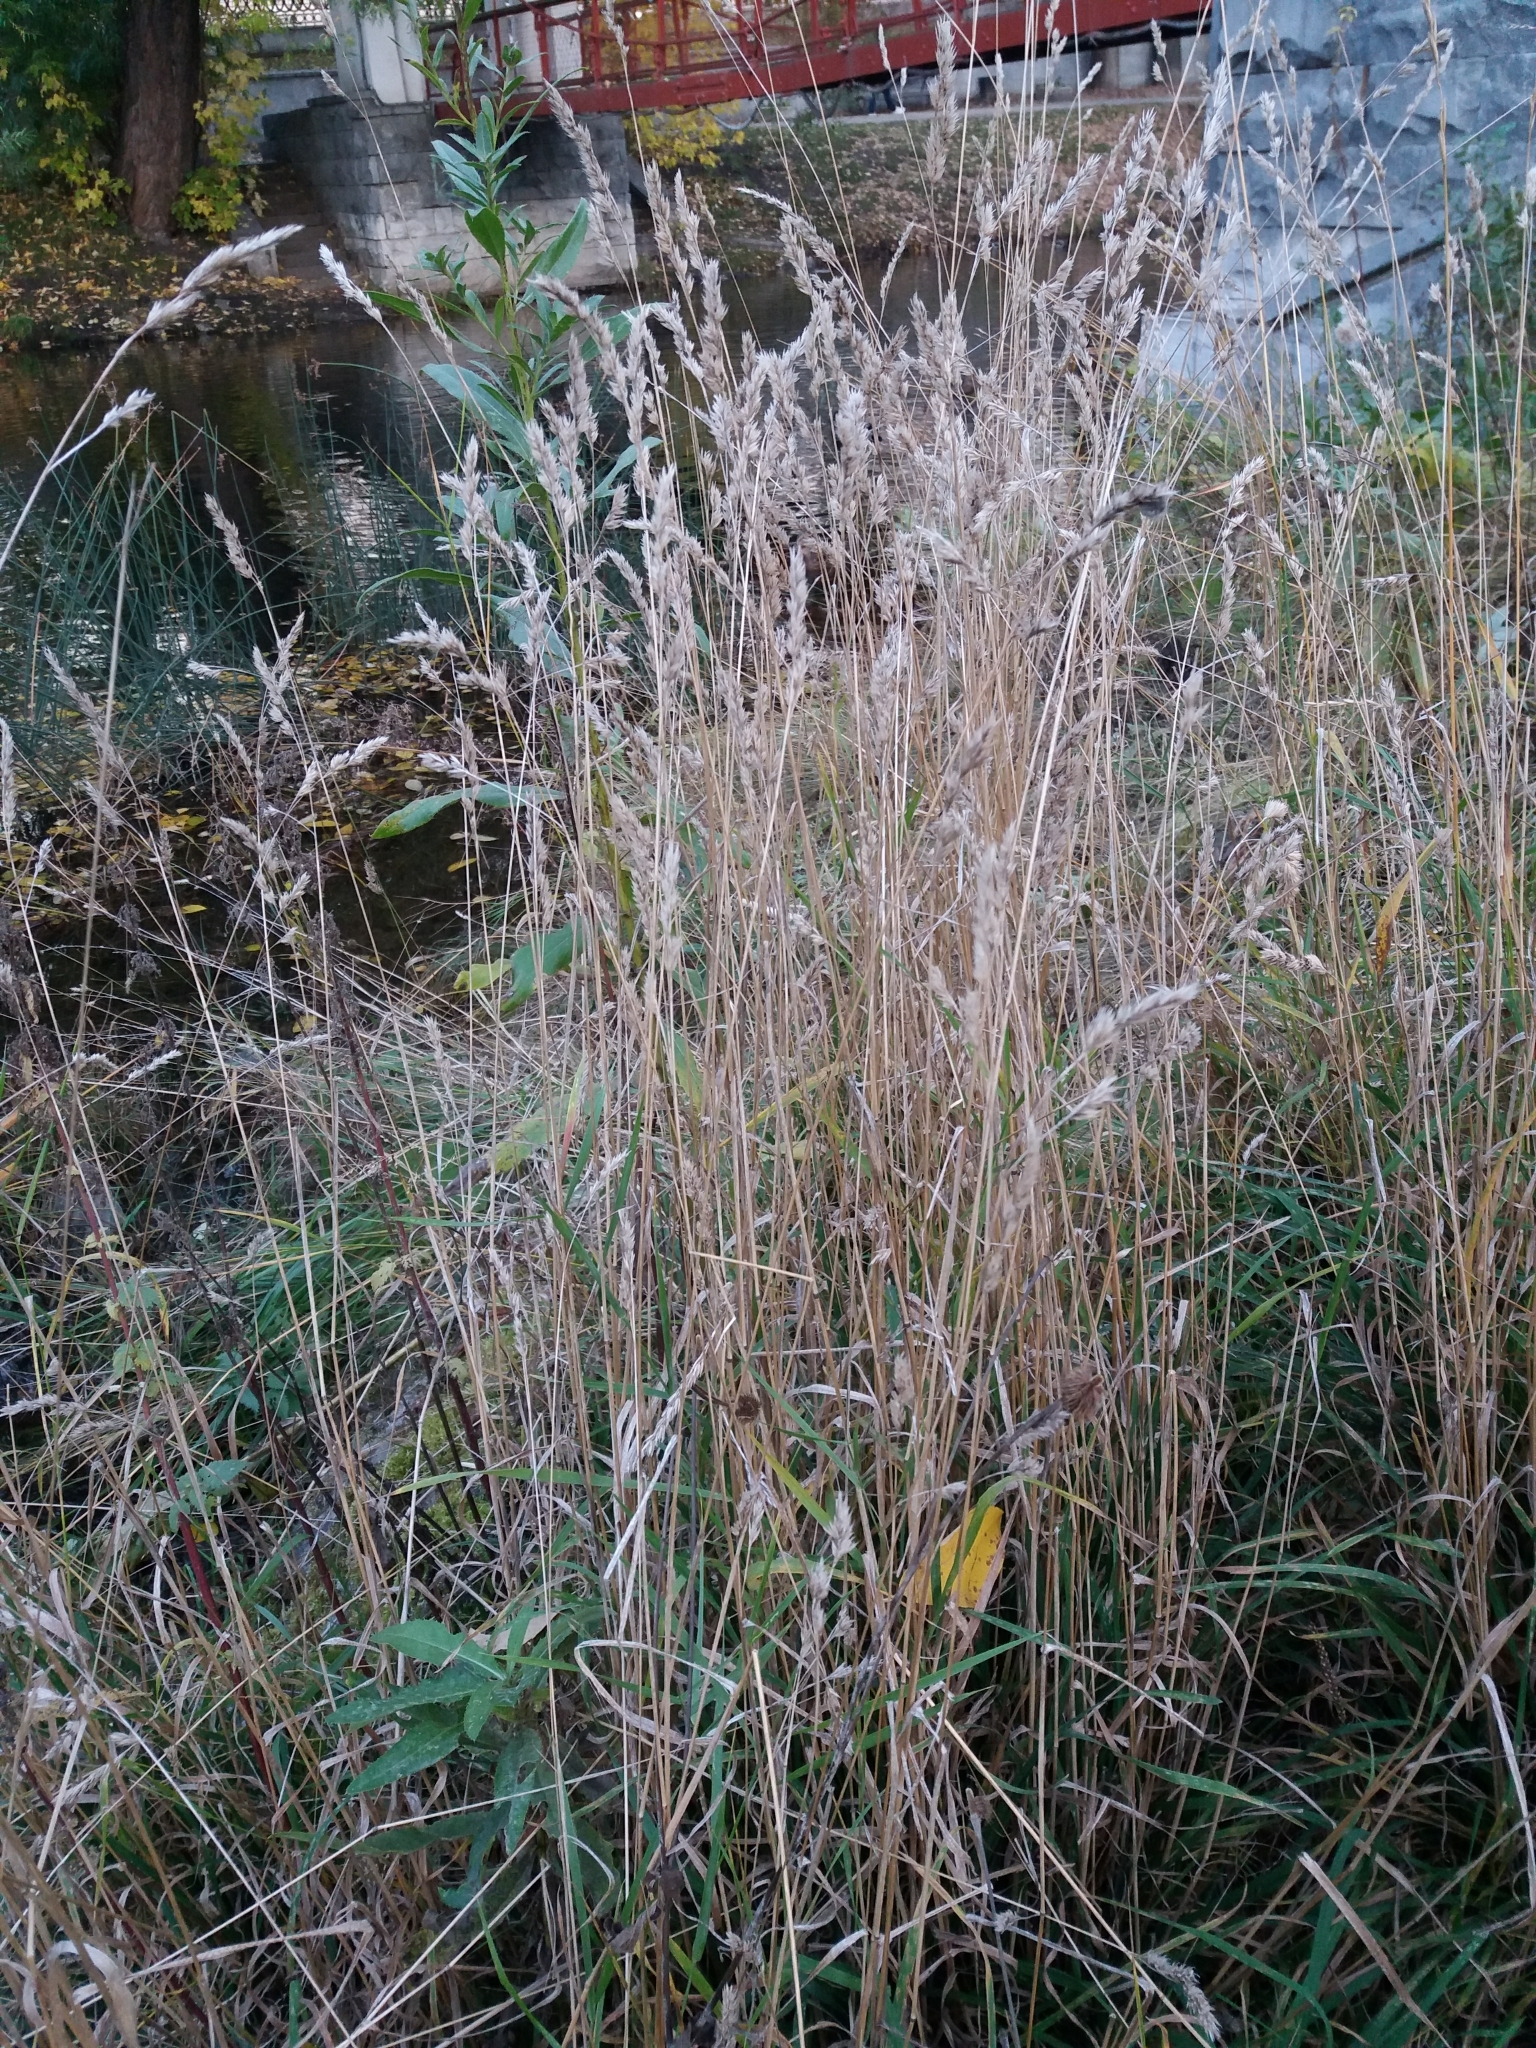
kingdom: Plantae
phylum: Tracheophyta
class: Liliopsida
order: Poales
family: Poaceae
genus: Dactylis
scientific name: Dactylis glomerata
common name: Orchardgrass
